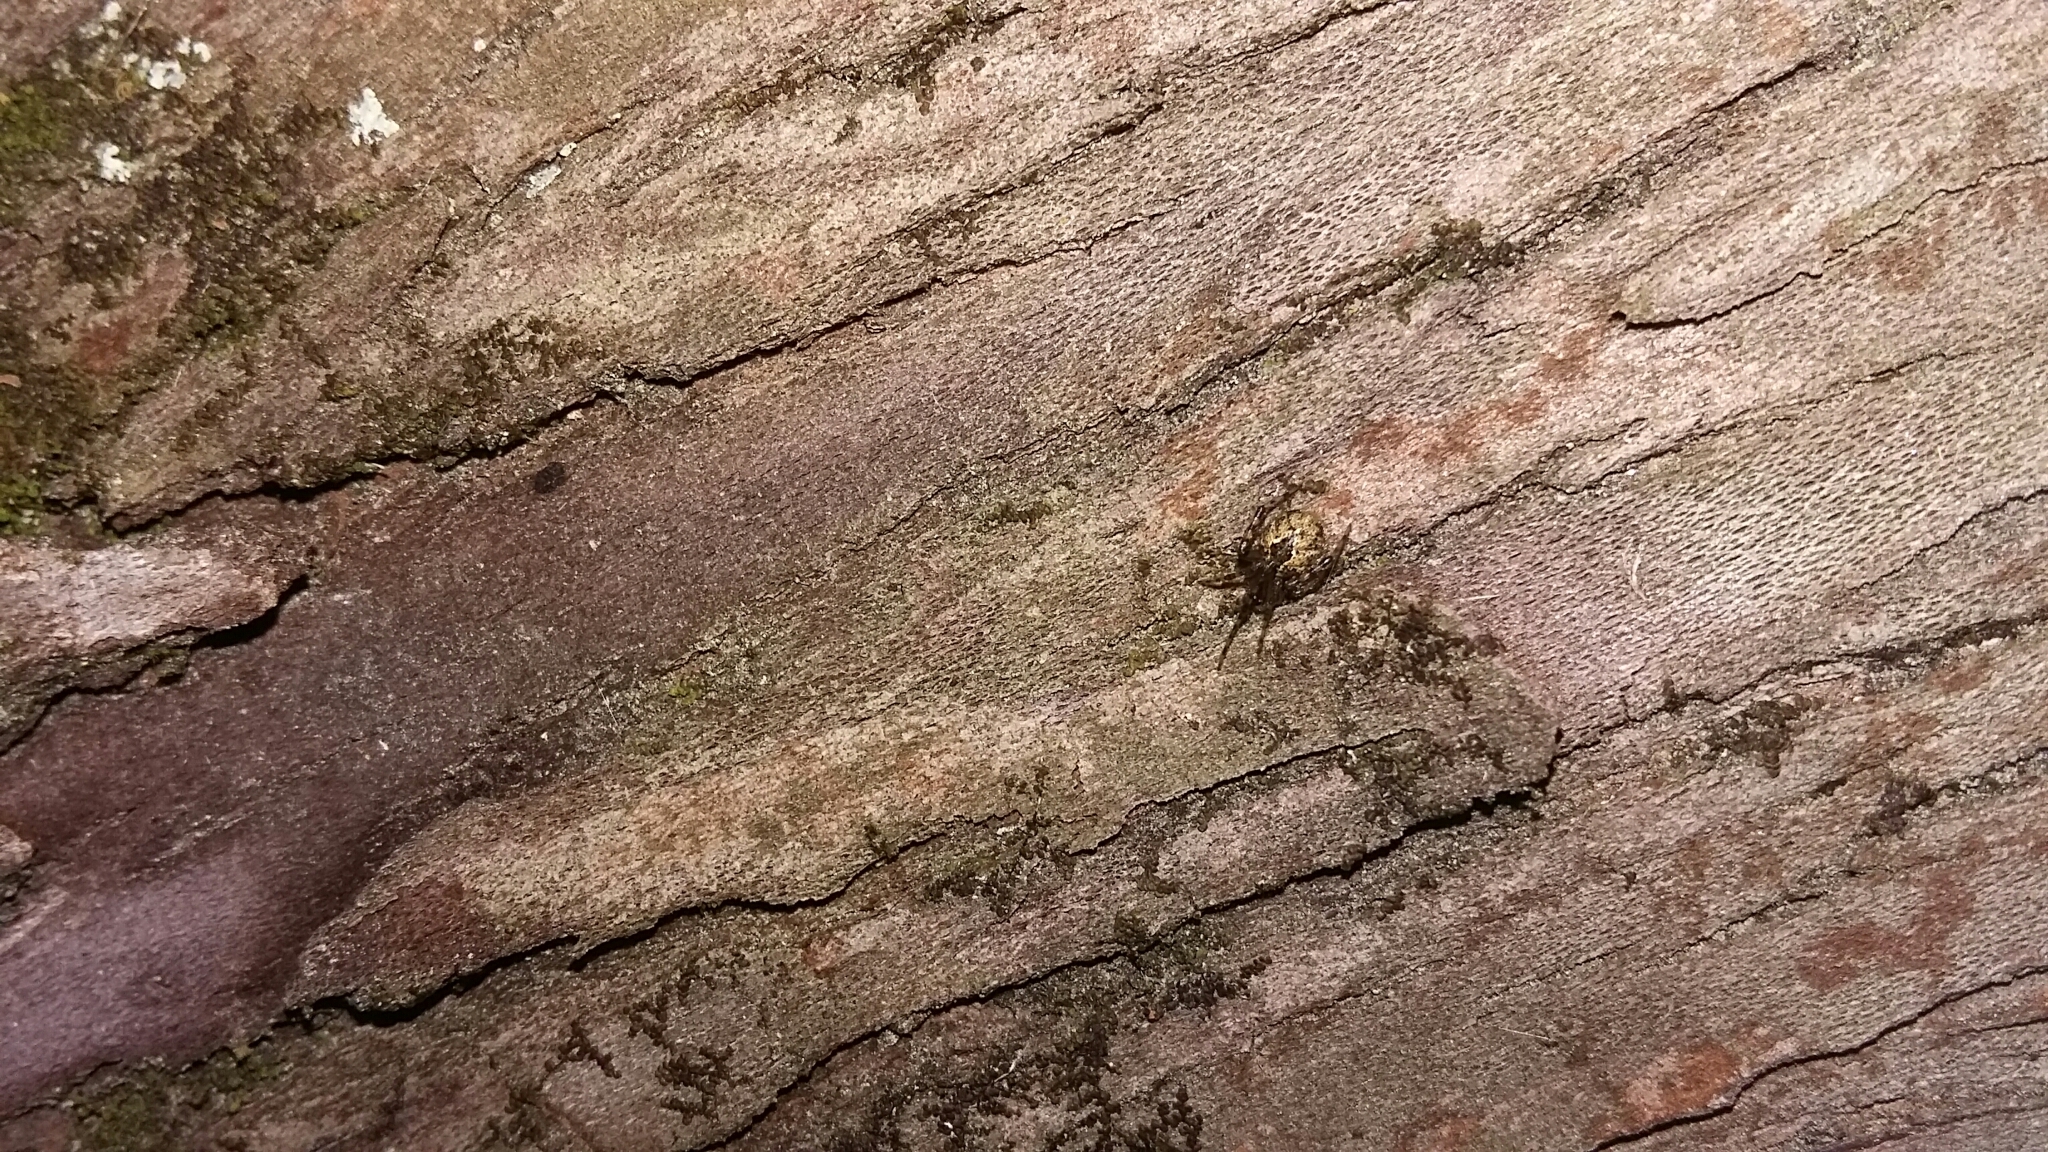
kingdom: Animalia
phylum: Arthropoda
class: Arachnida
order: Araneae
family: Theridiidae
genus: Cryptachaea
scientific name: Cryptachaea veruculata
